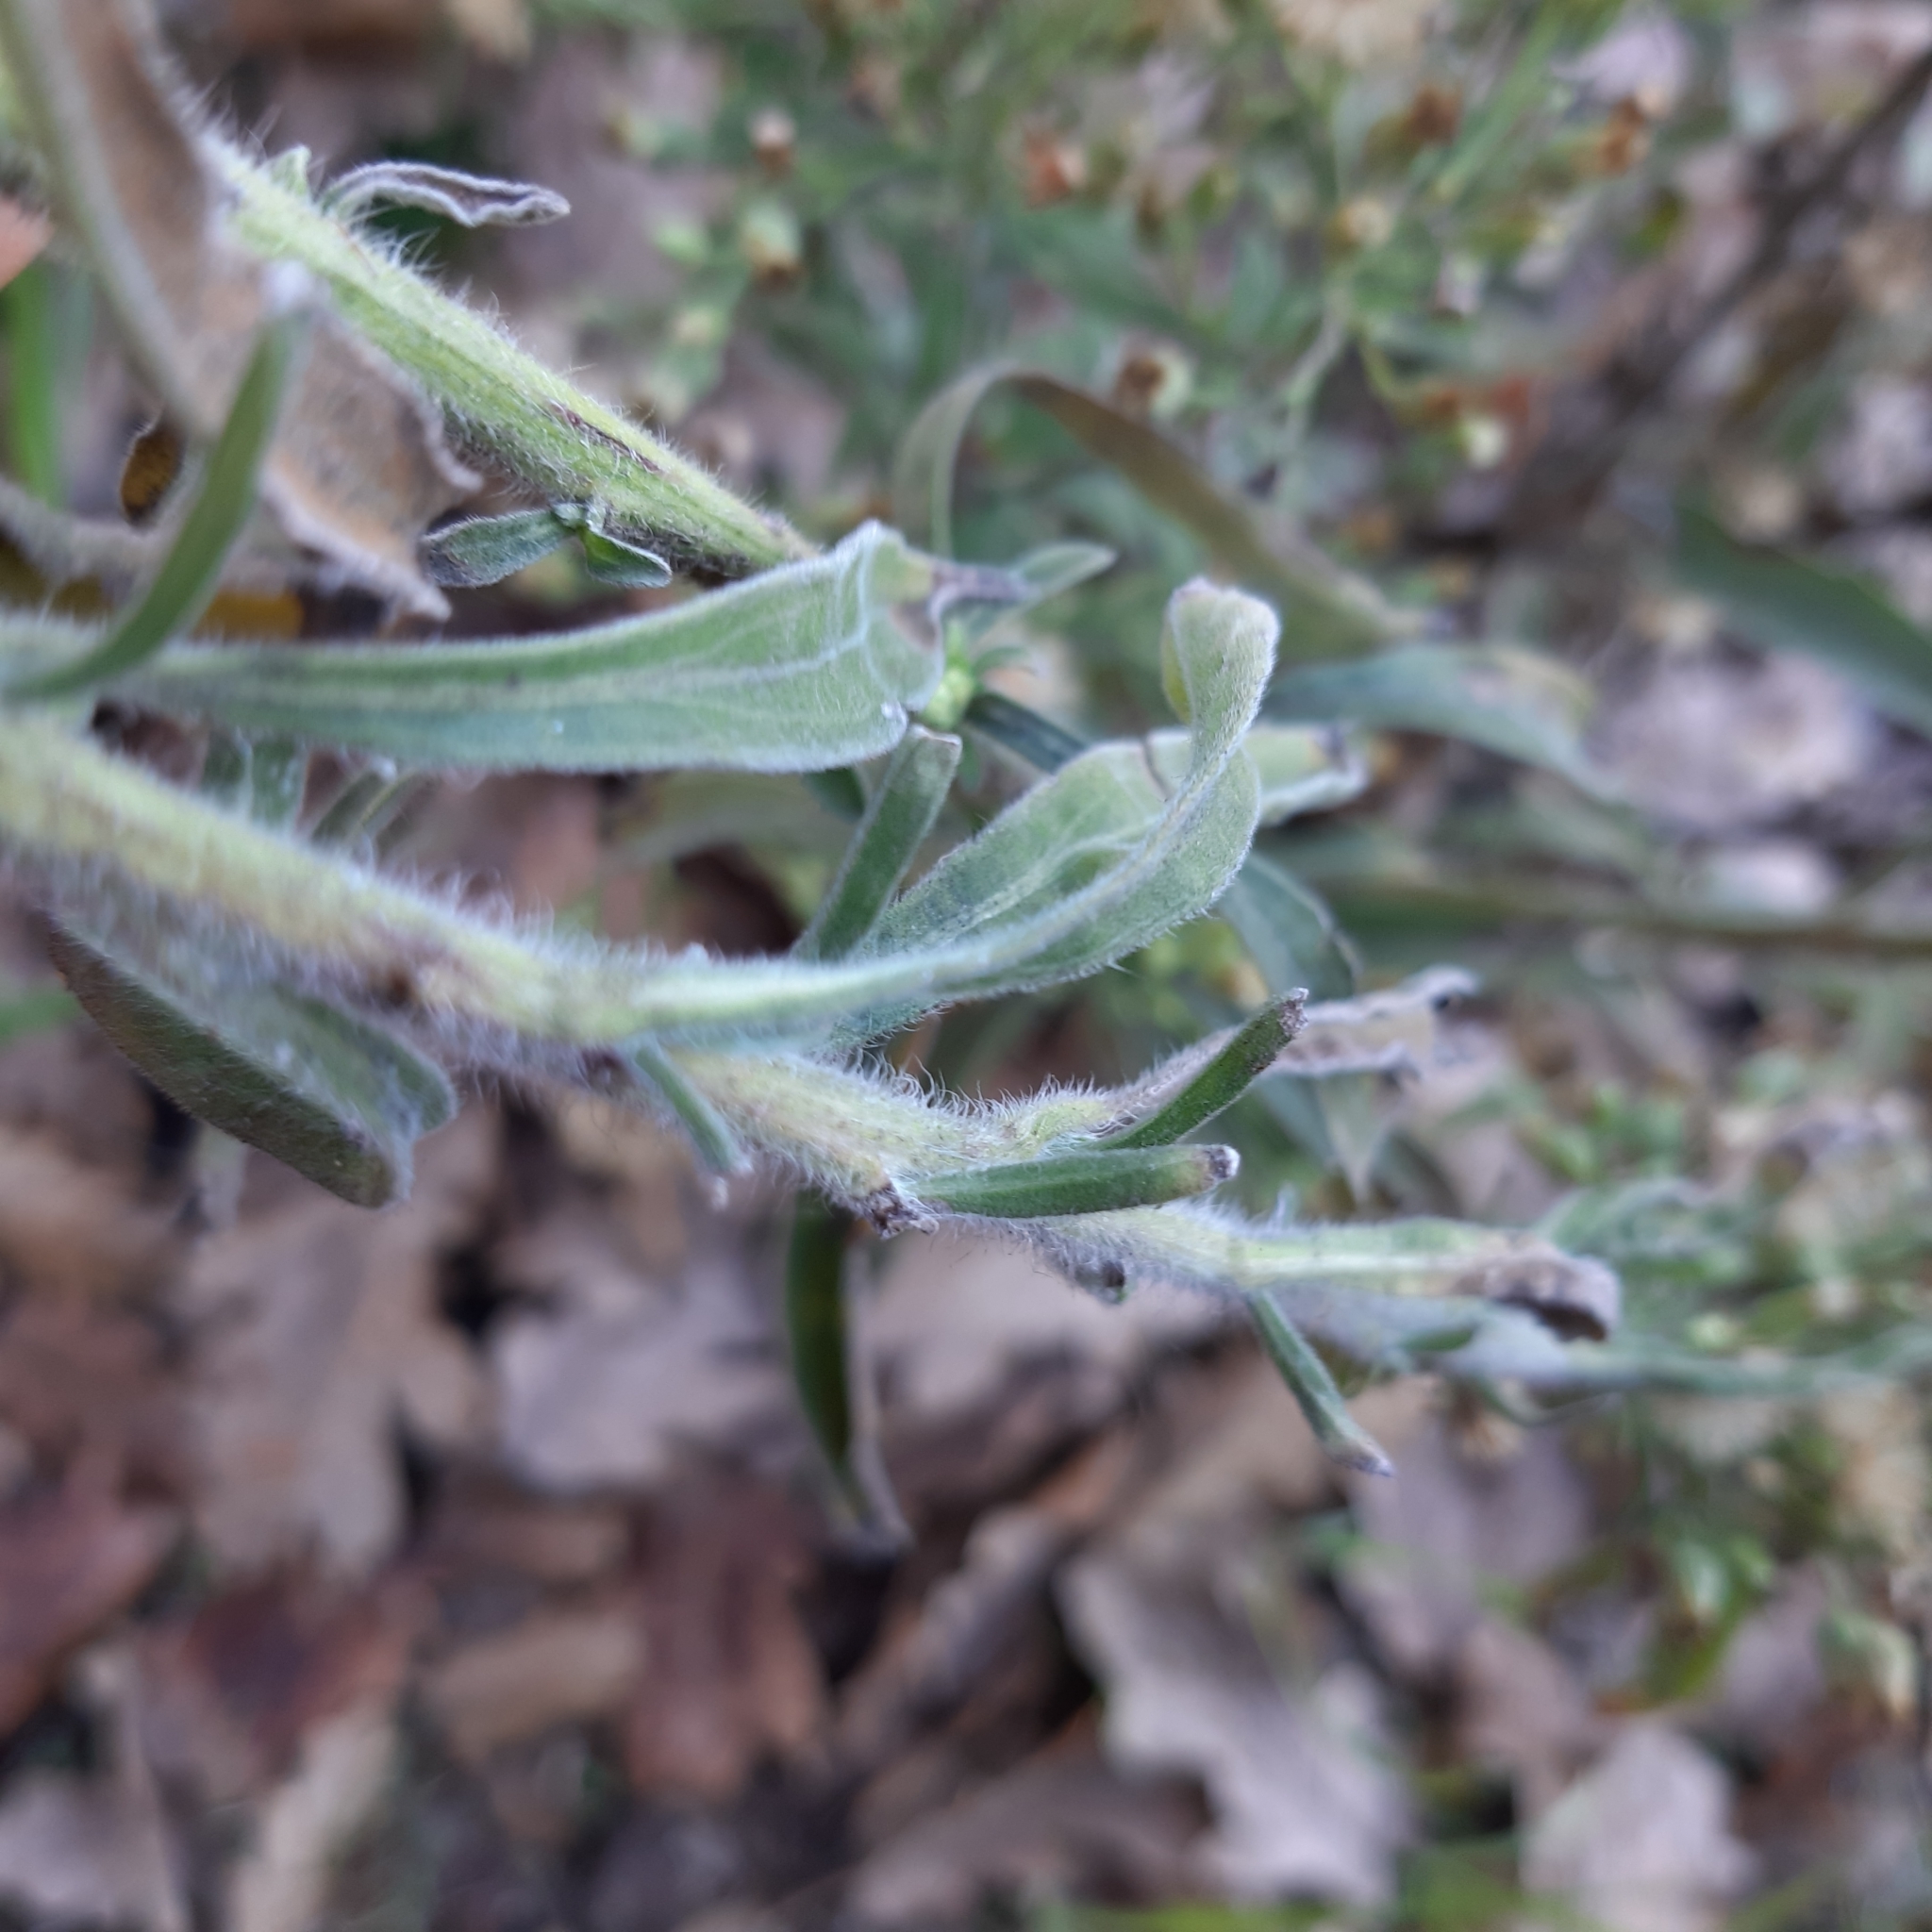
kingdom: Plantae
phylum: Tracheophyta
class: Magnoliopsida
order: Asterales
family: Asteraceae
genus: Erigeron
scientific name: Erigeron sumatrensis
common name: Daisy
